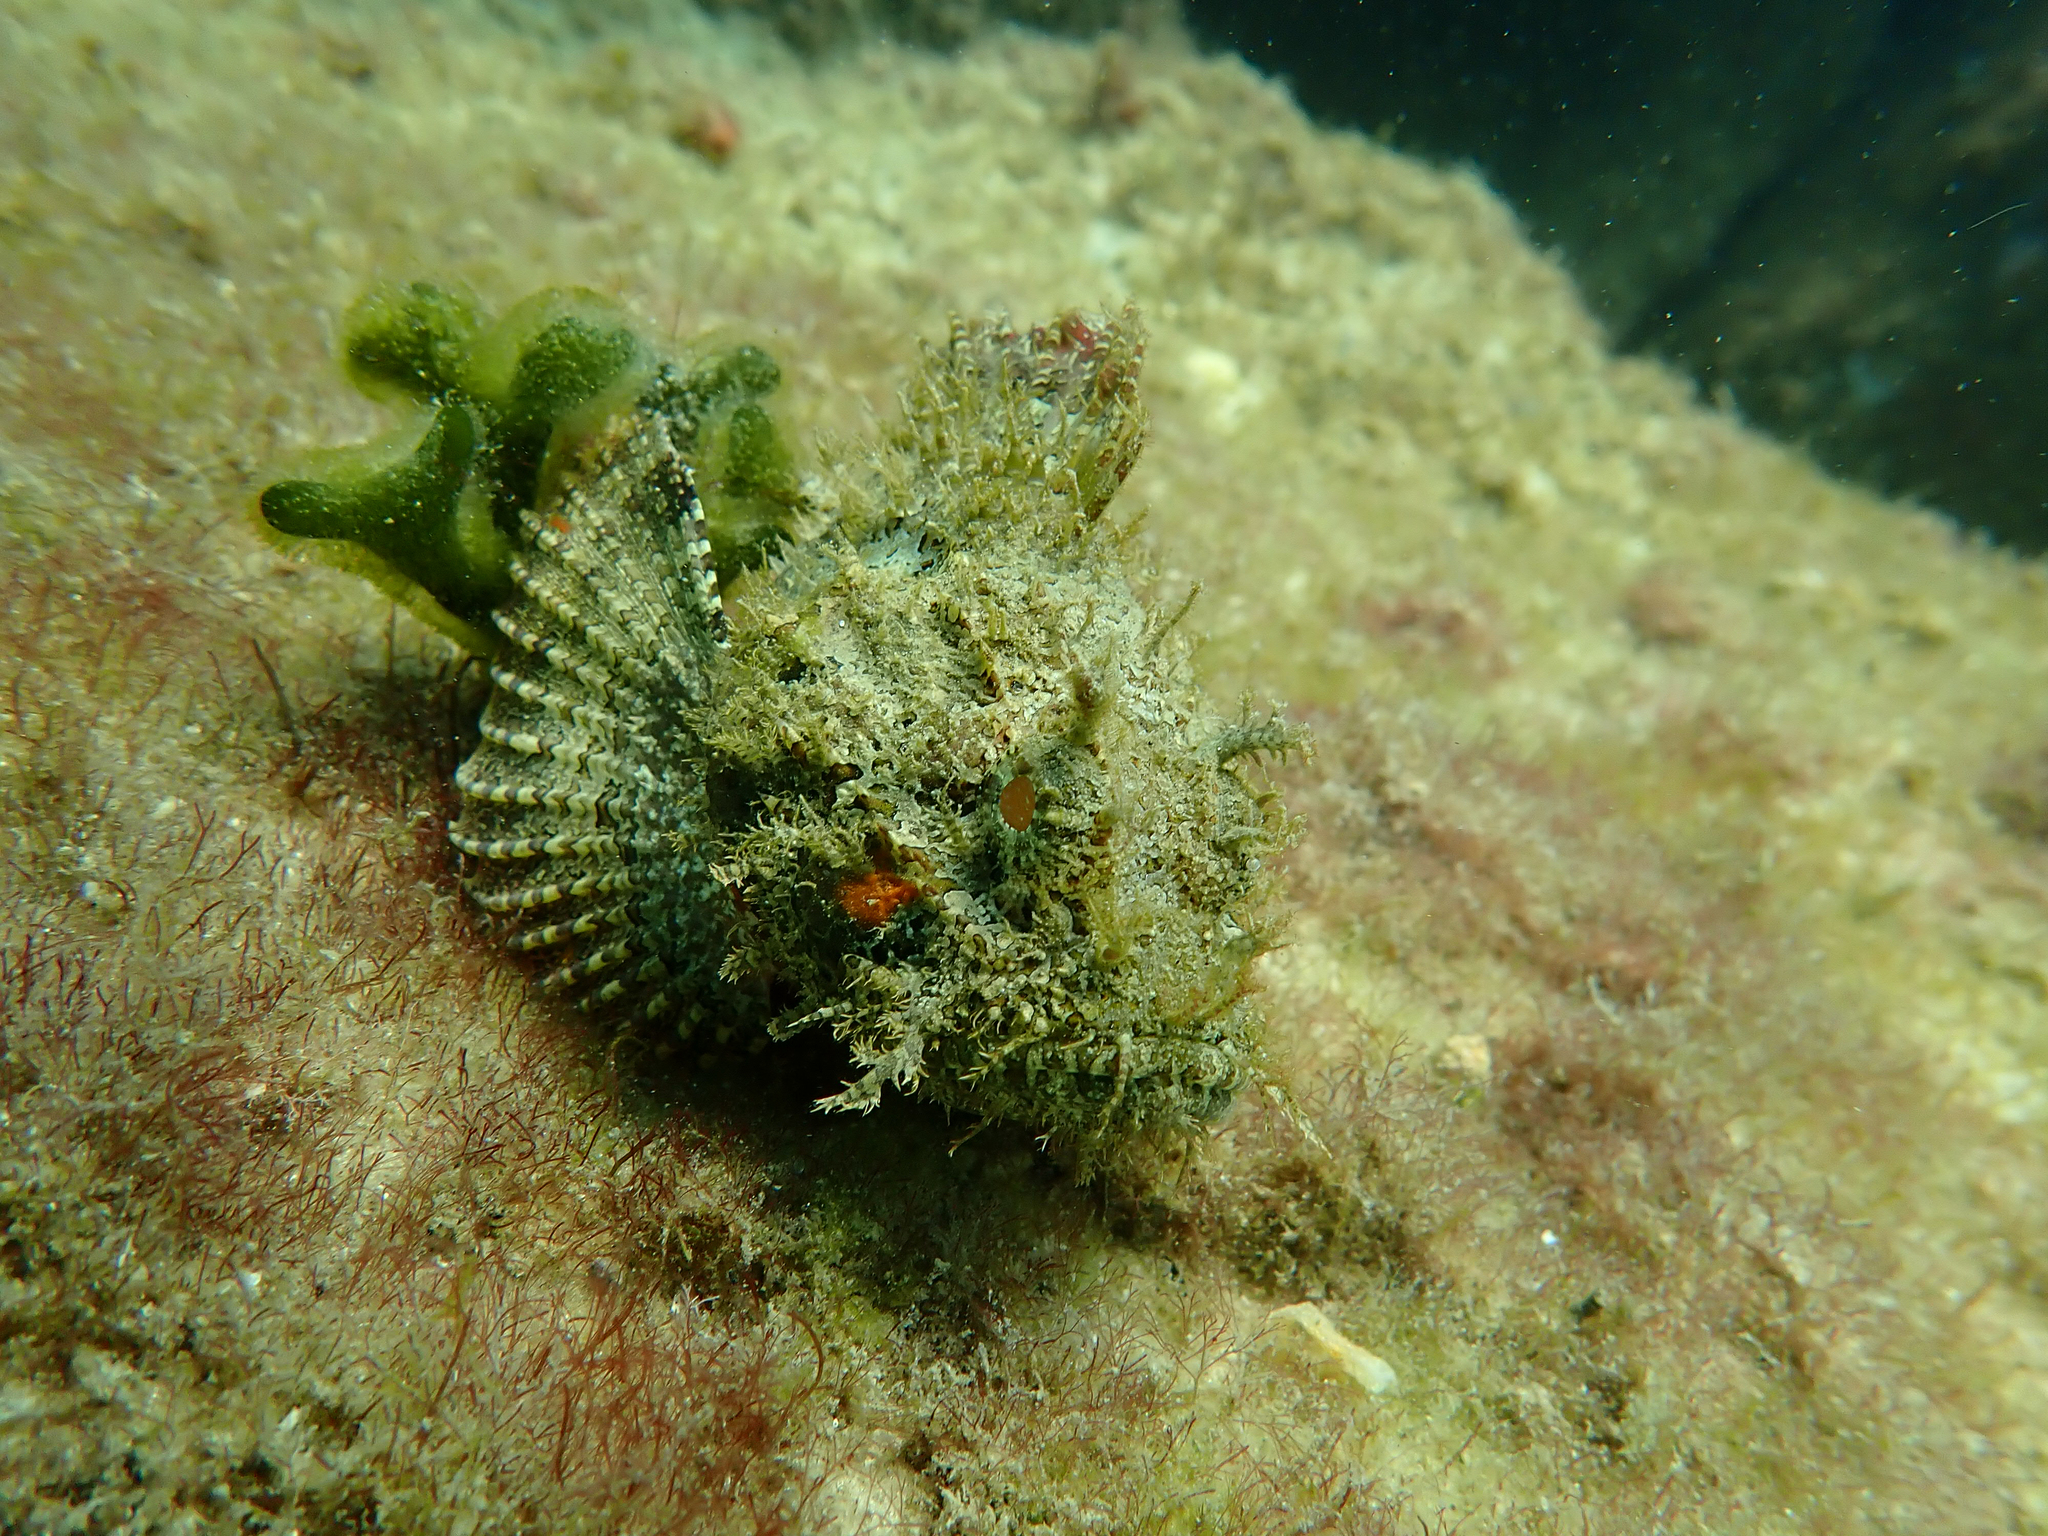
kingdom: Animalia
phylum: Chordata
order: Scorpaeniformes
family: Scorpaenidae
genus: Scorpaena
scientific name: Scorpaena plumieri
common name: Spotted scorpionfish
